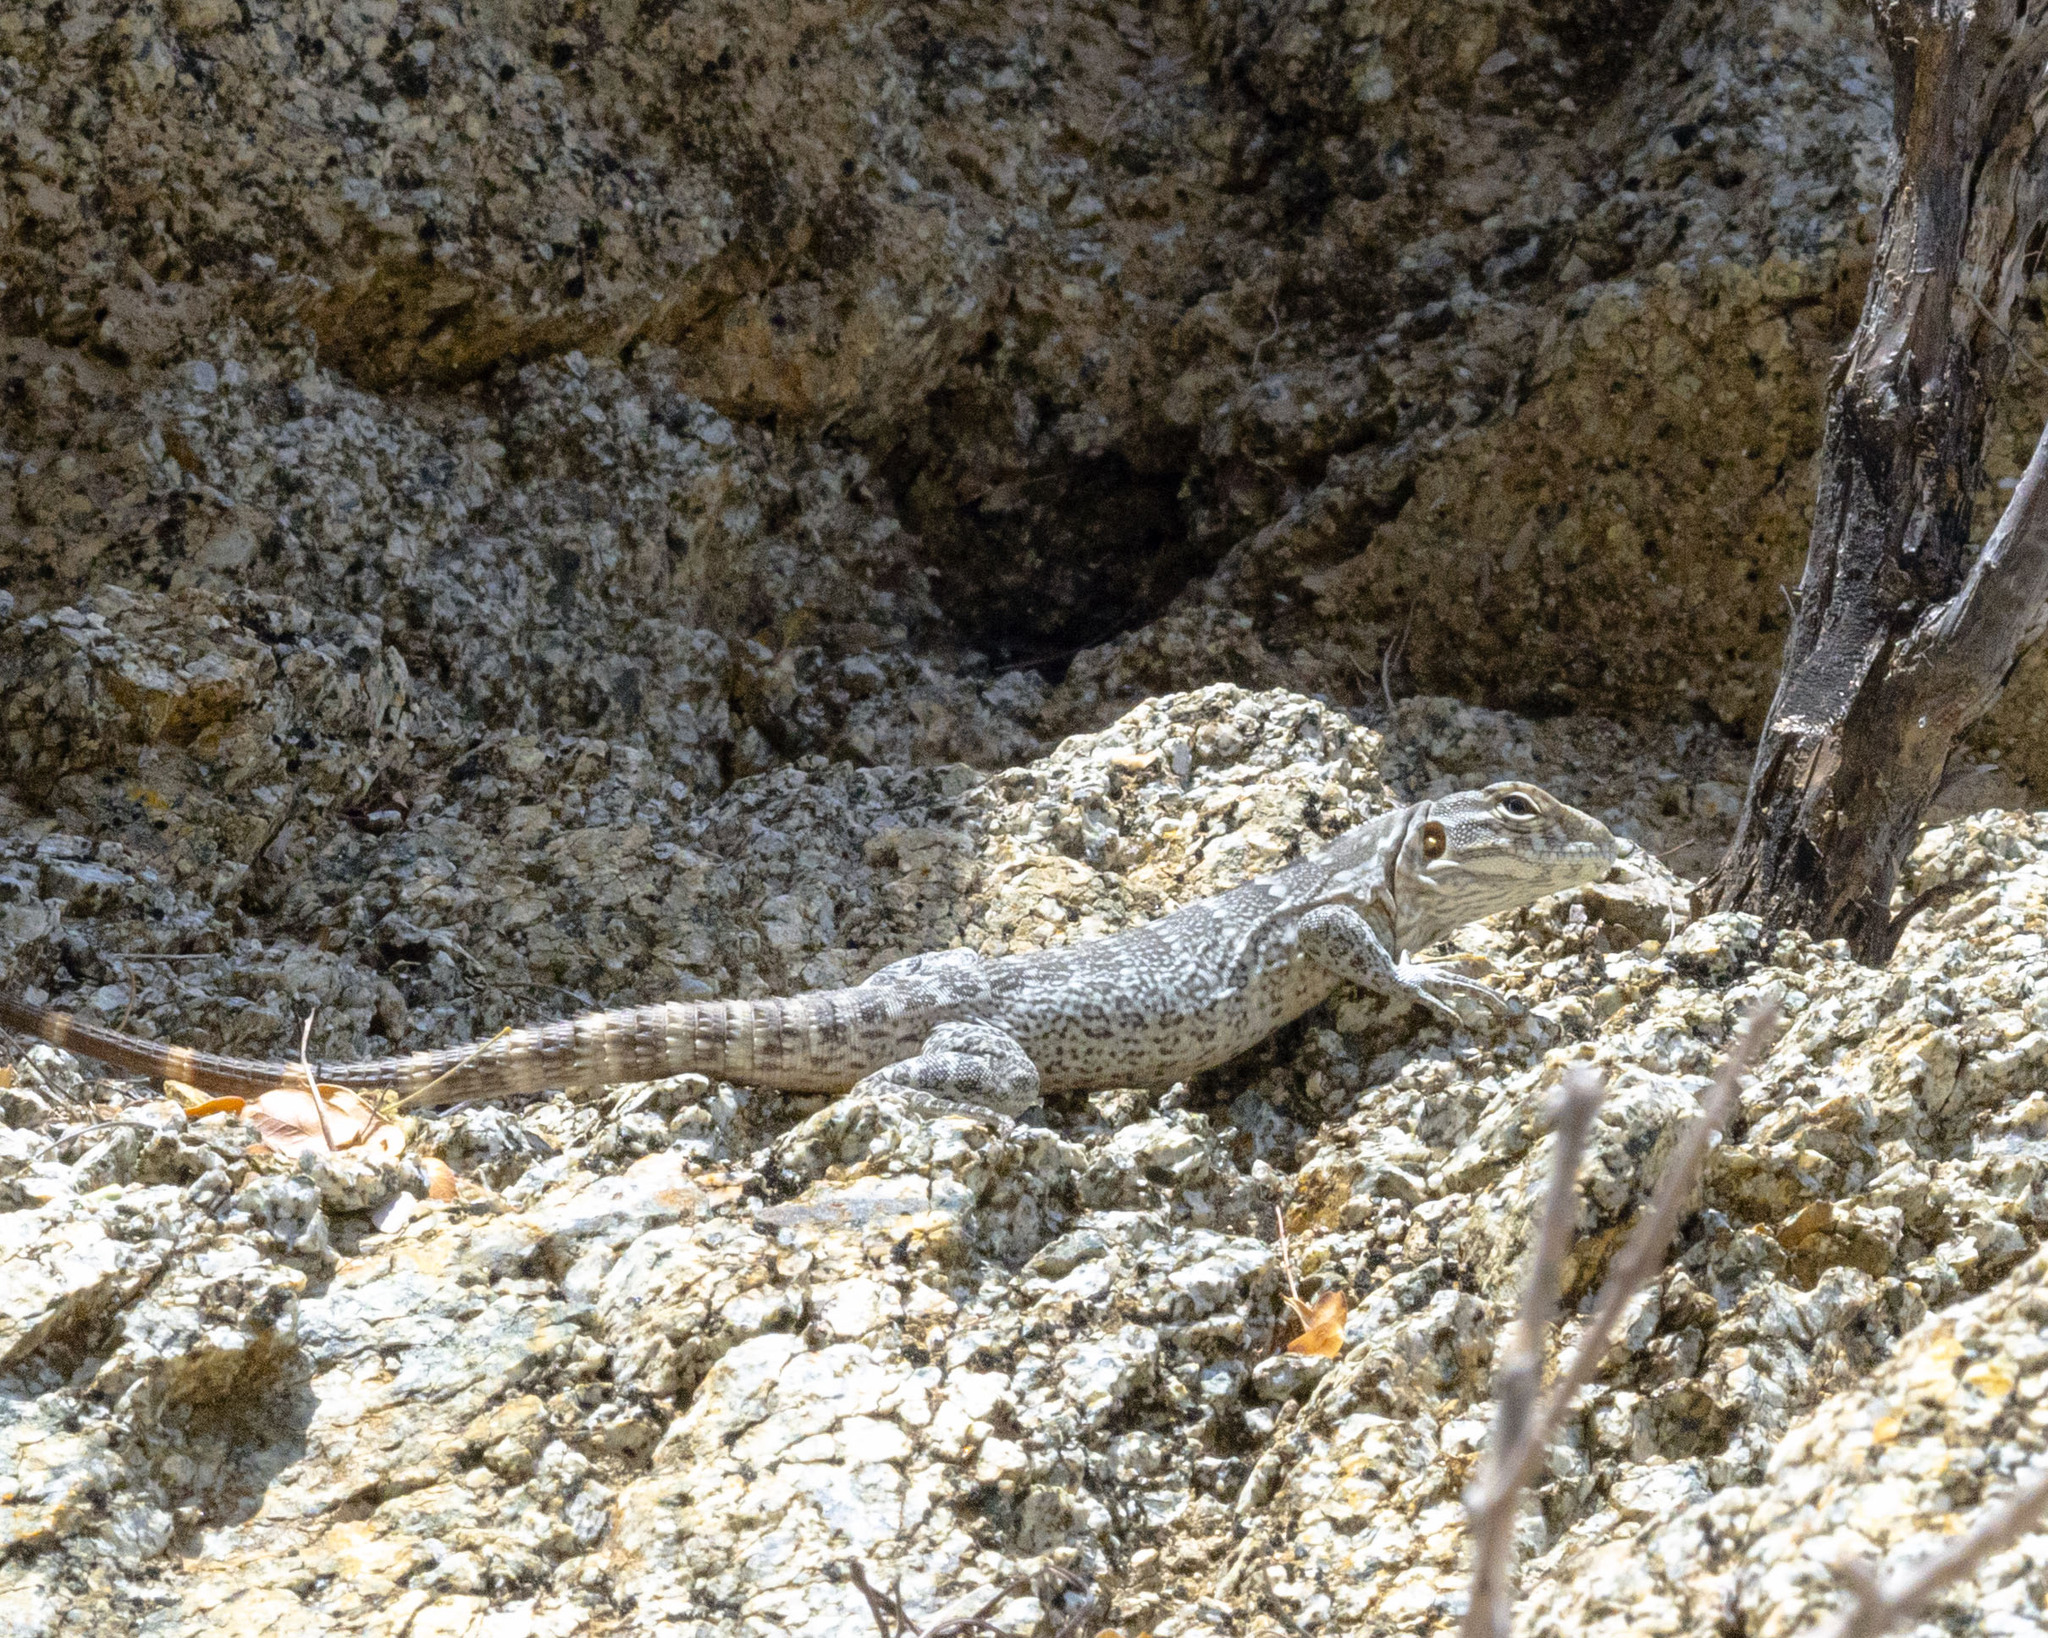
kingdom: Animalia
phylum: Chordata
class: Squamata
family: Iguanidae
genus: Ctenosaura
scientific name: Ctenosaura hemilopha
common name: Baja california spiny- tailed iguana
